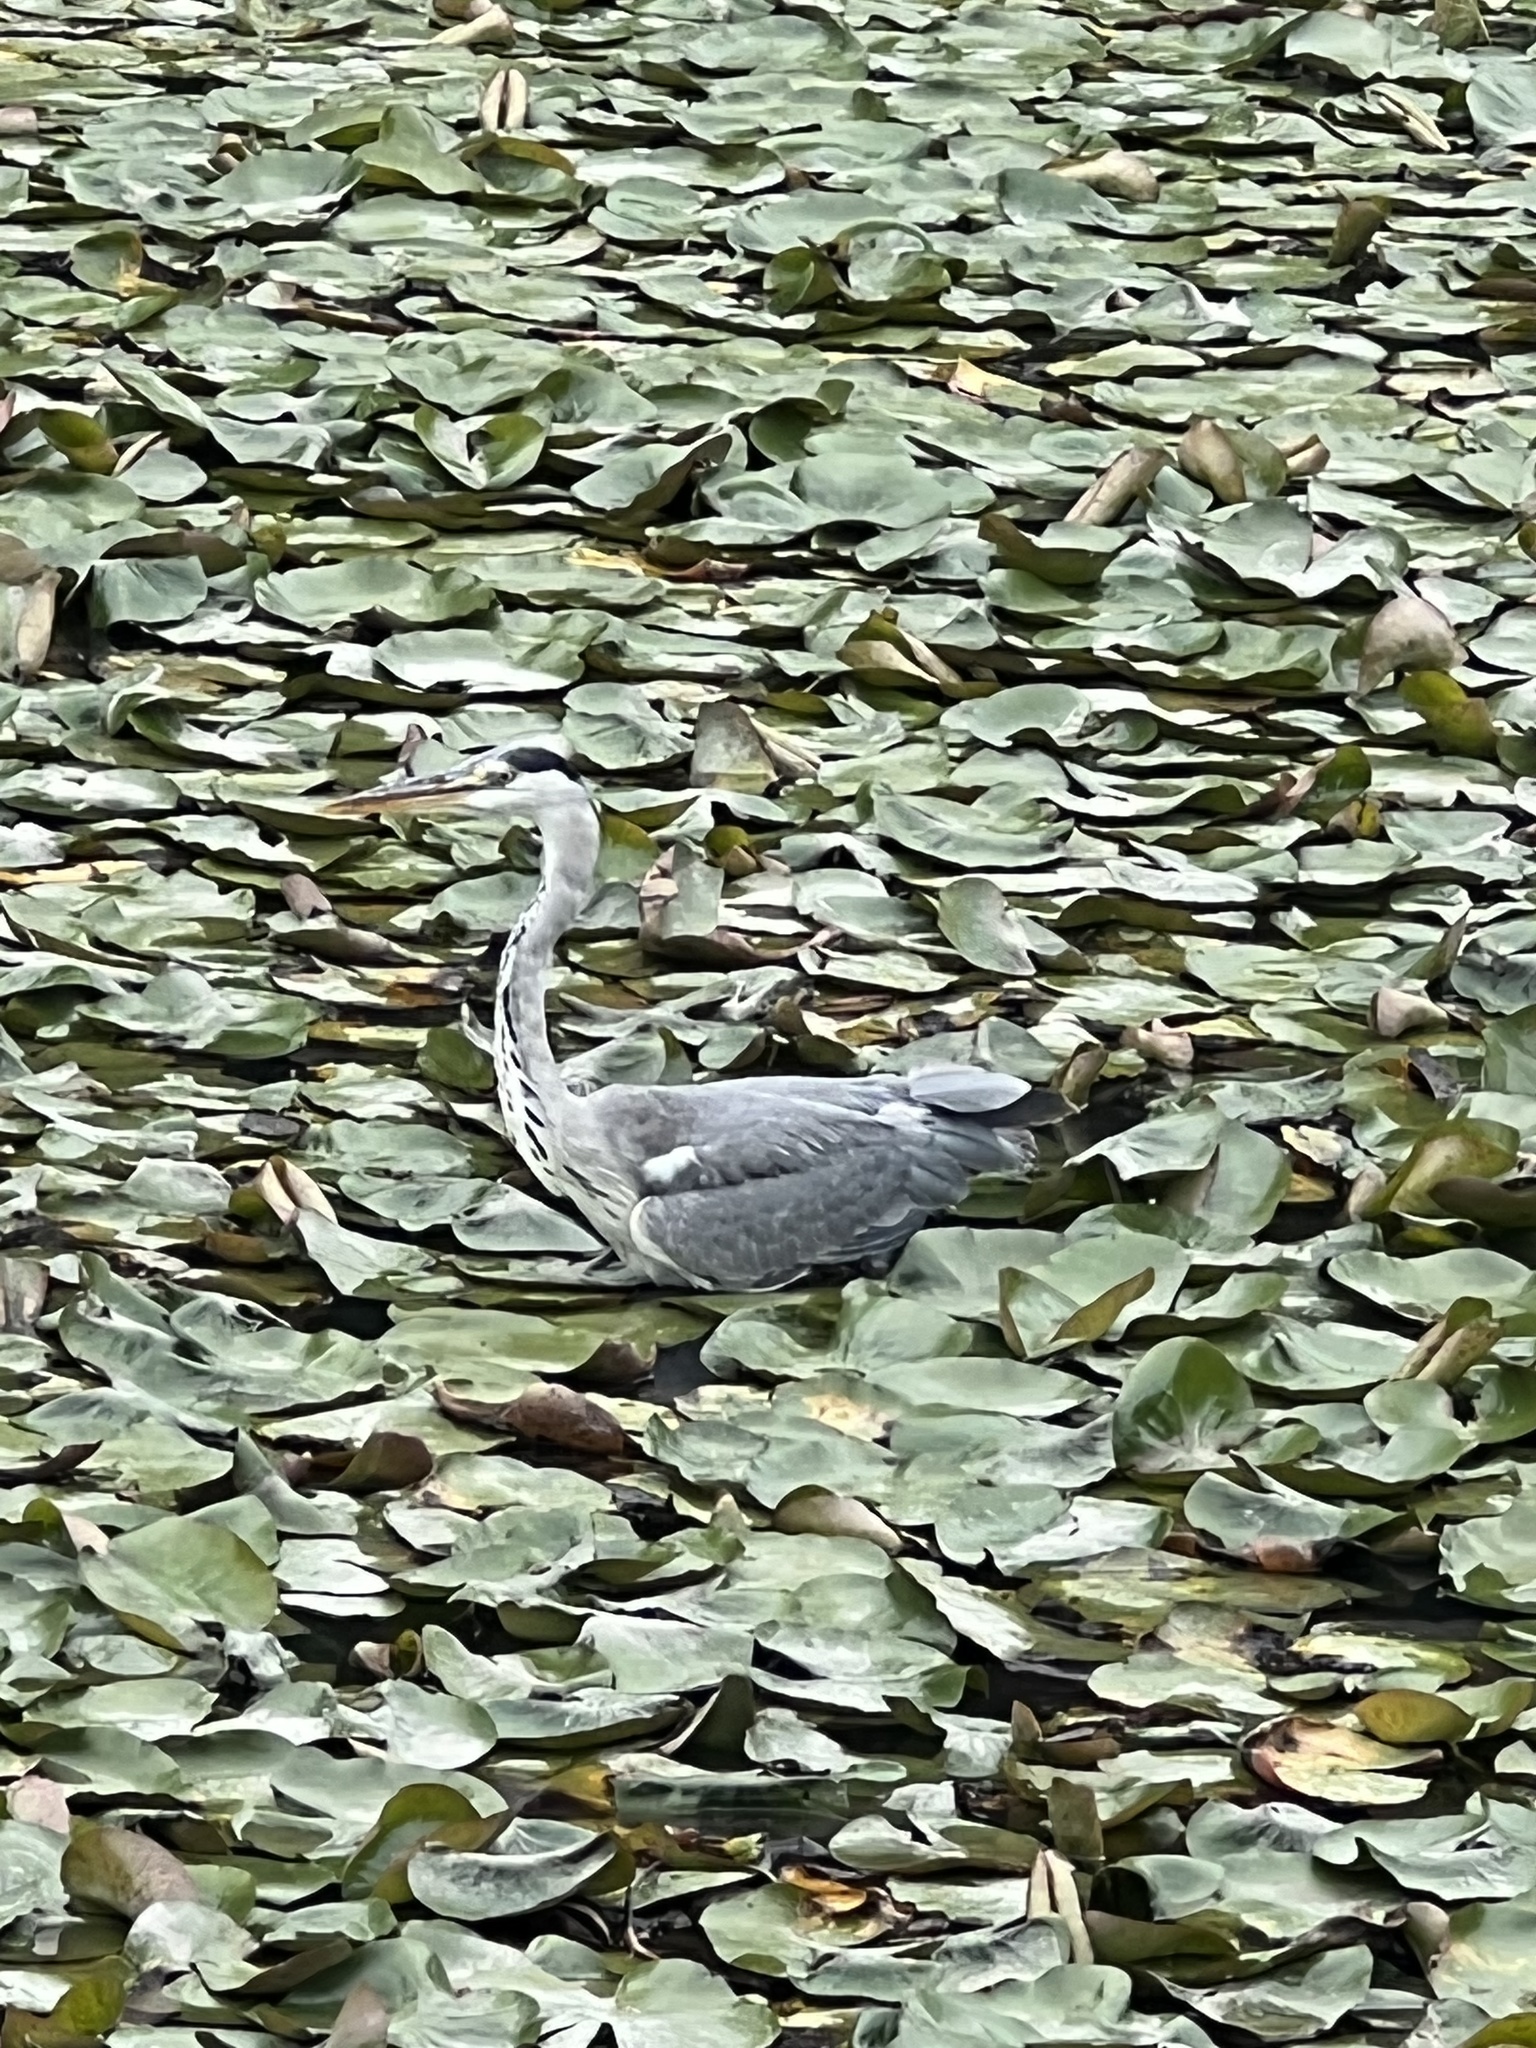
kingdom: Animalia
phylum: Chordata
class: Aves
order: Pelecaniformes
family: Ardeidae
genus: Ardea
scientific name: Ardea cinerea
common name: Grey heron
